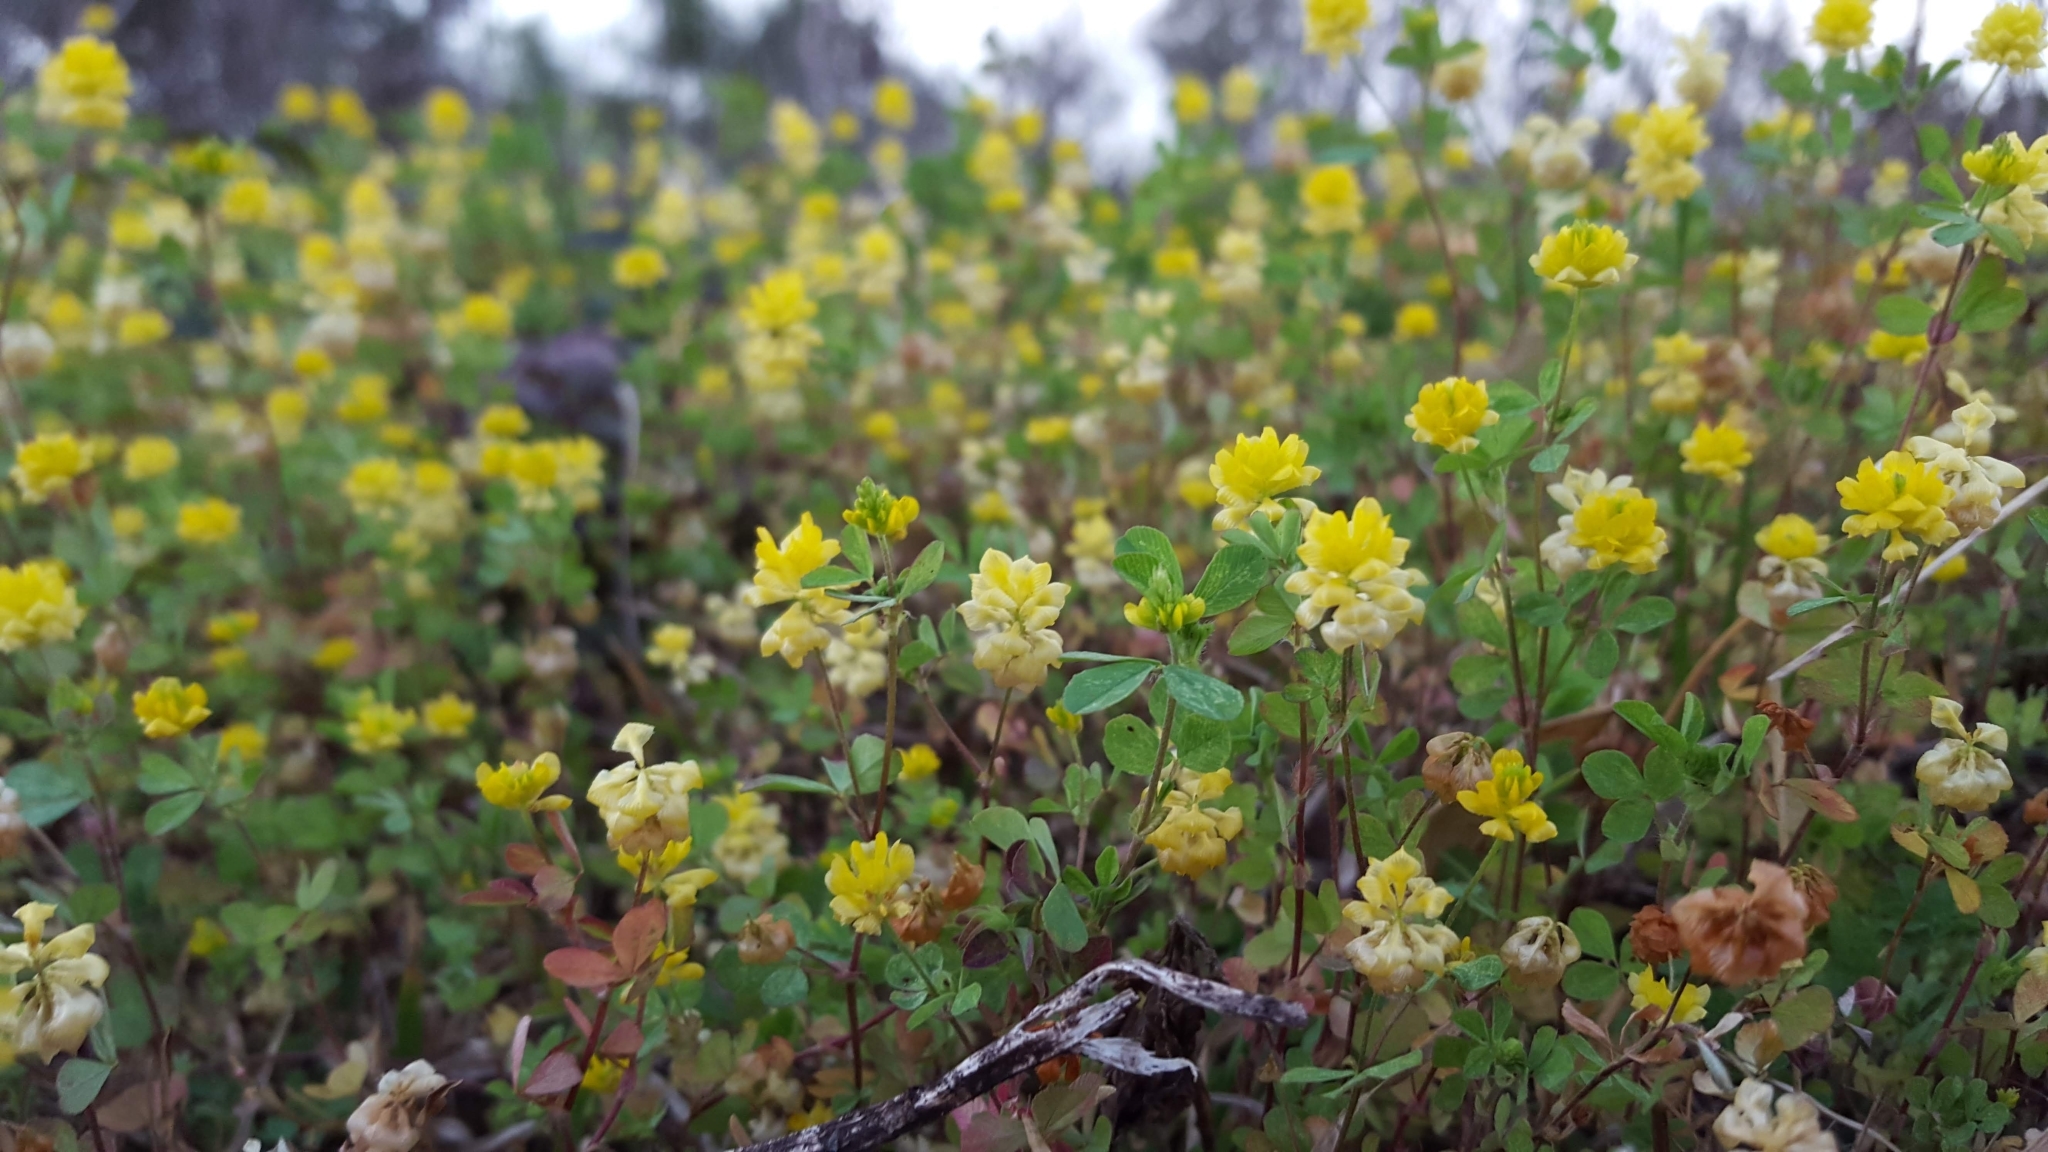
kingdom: Plantae
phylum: Tracheophyta
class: Magnoliopsida
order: Fabales
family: Fabaceae
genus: Trifolium
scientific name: Trifolium campestre
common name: Field clover
